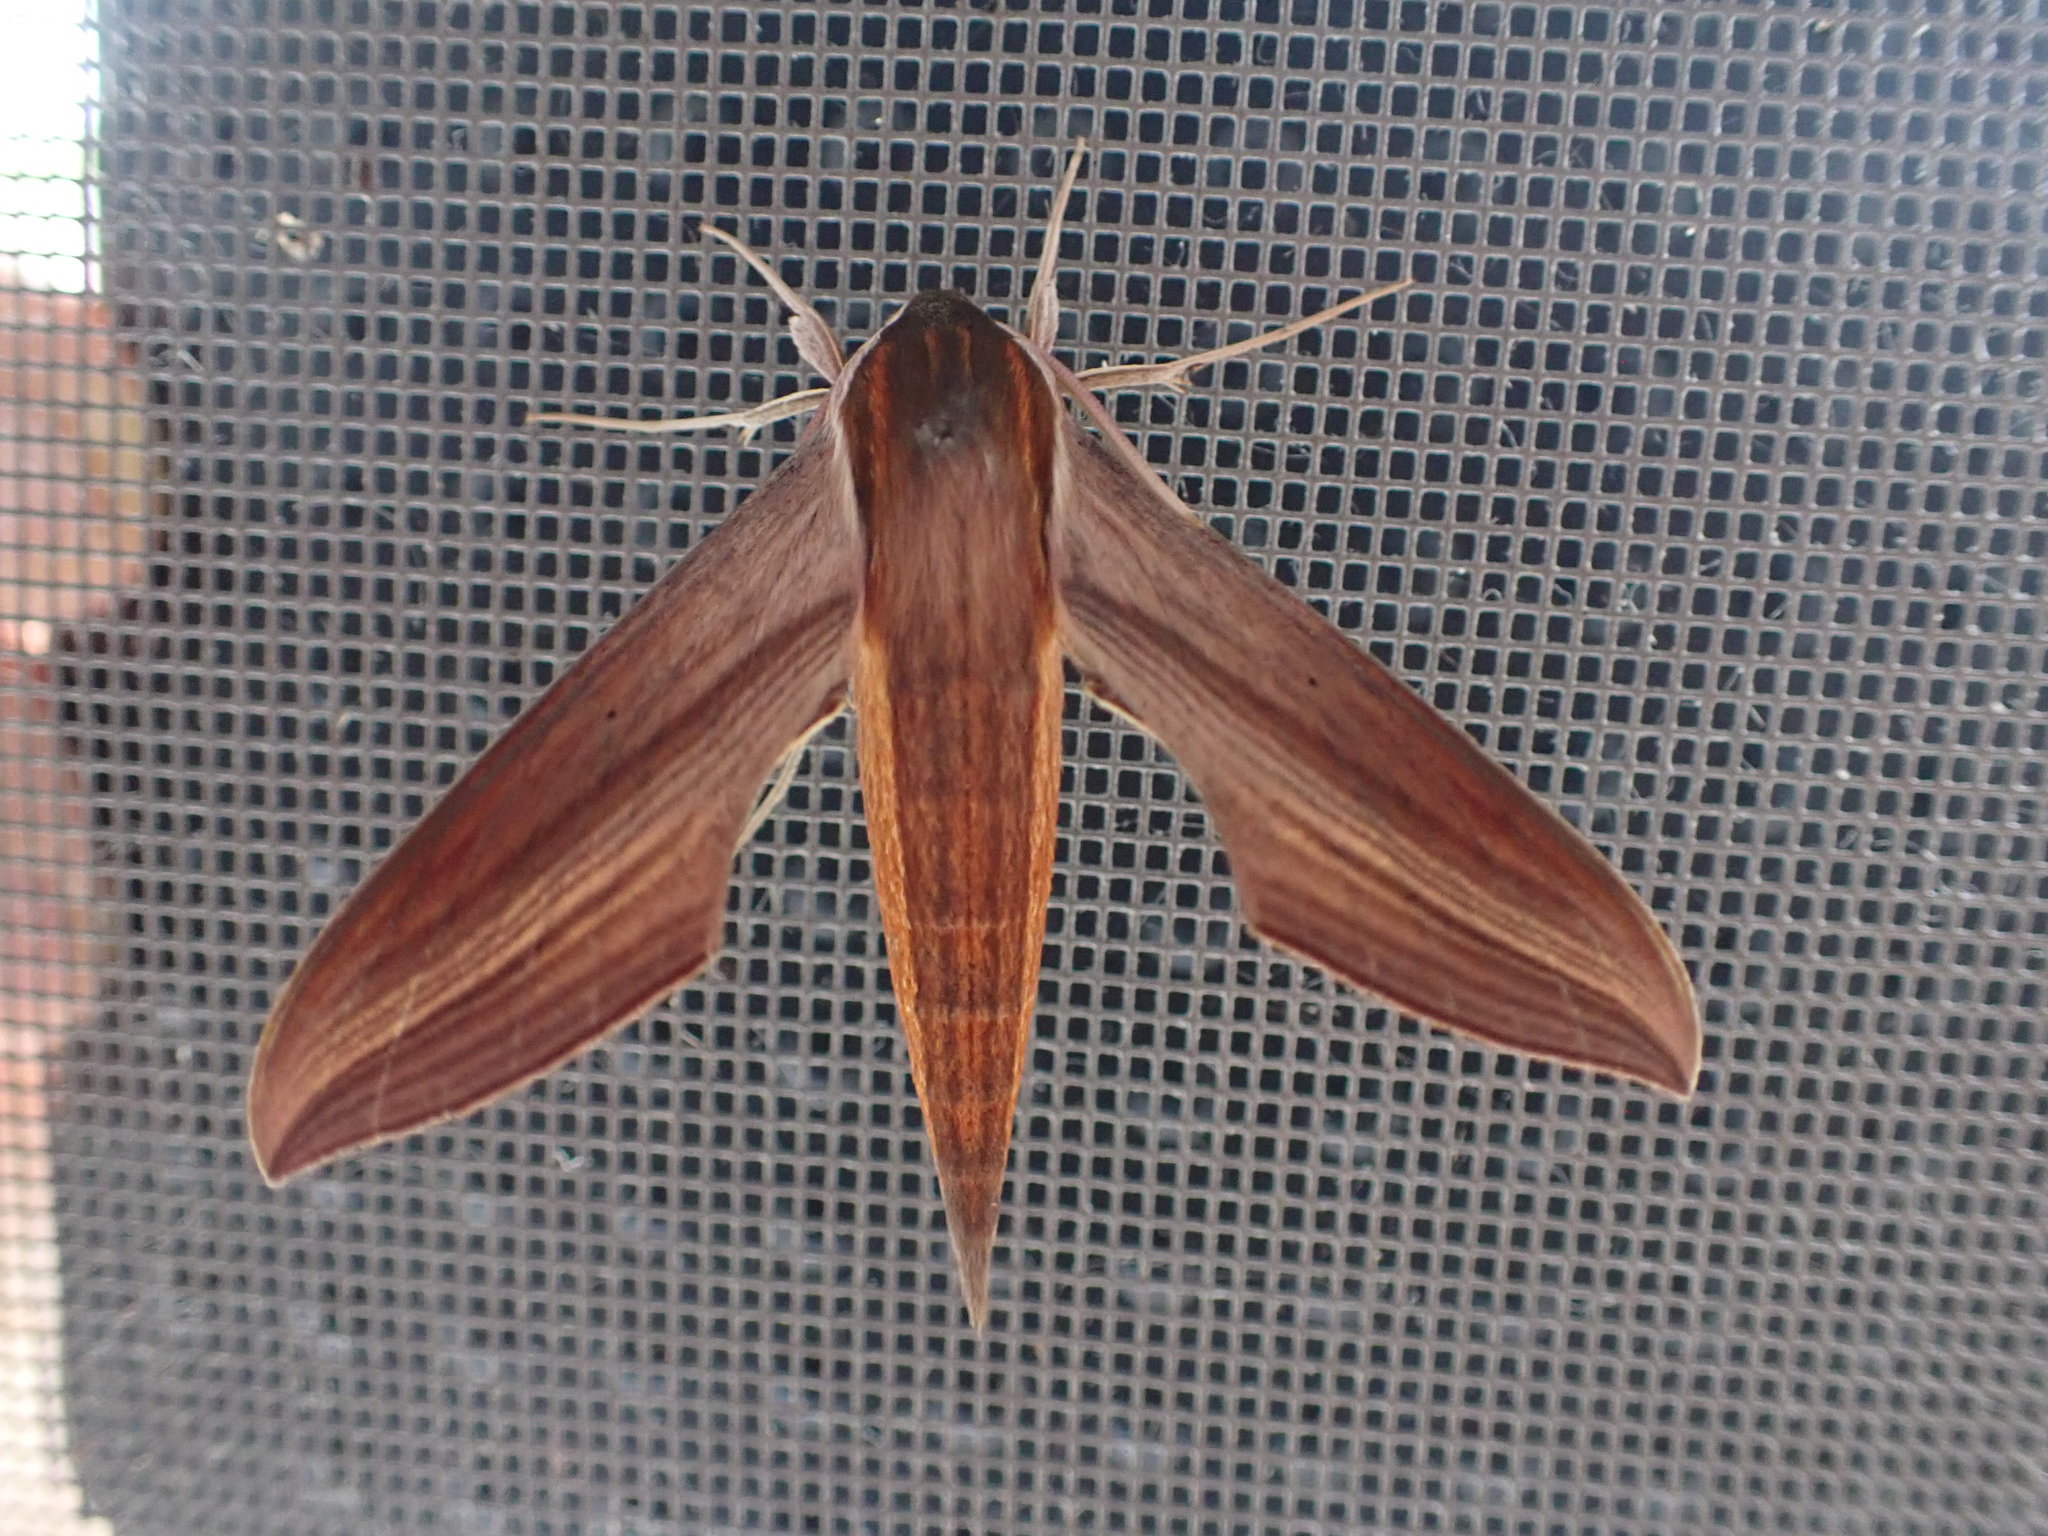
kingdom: Animalia
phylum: Arthropoda
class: Insecta
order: Lepidoptera
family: Sphingidae
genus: Xylophanes
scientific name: Xylophanes tersa
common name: Tersa sphinx
